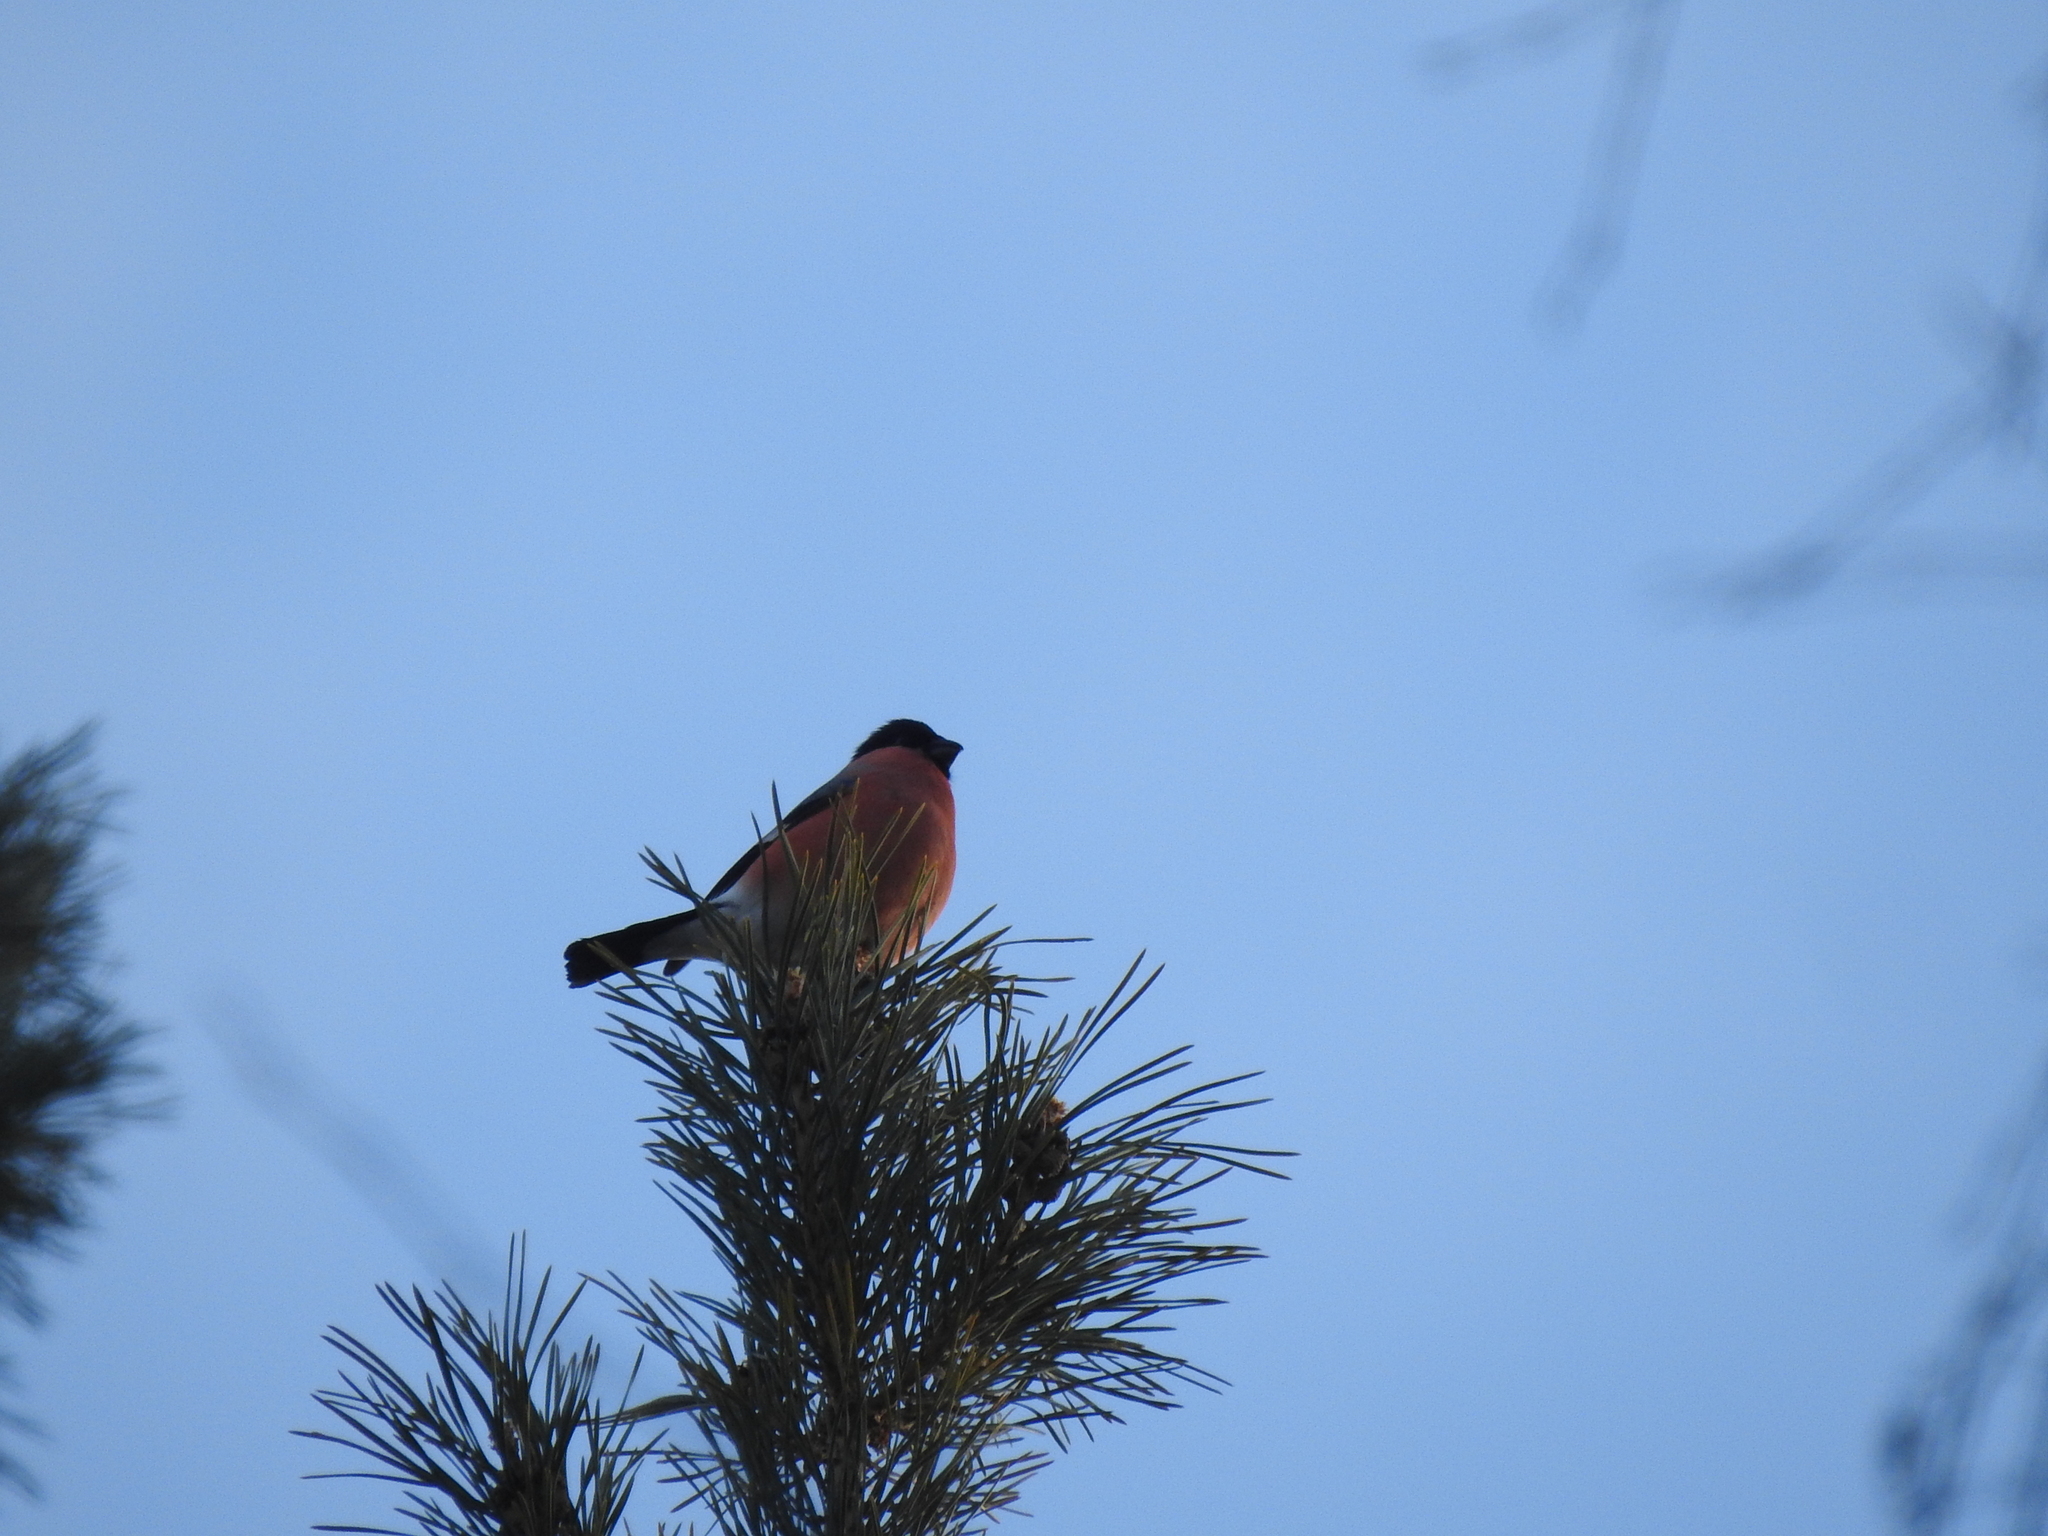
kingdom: Animalia
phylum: Chordata
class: Aves
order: Passeriformes
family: Fringillidae
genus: Pyrrhula
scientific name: Pyrrhula pyrrhula
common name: Eurasian bullfinch
